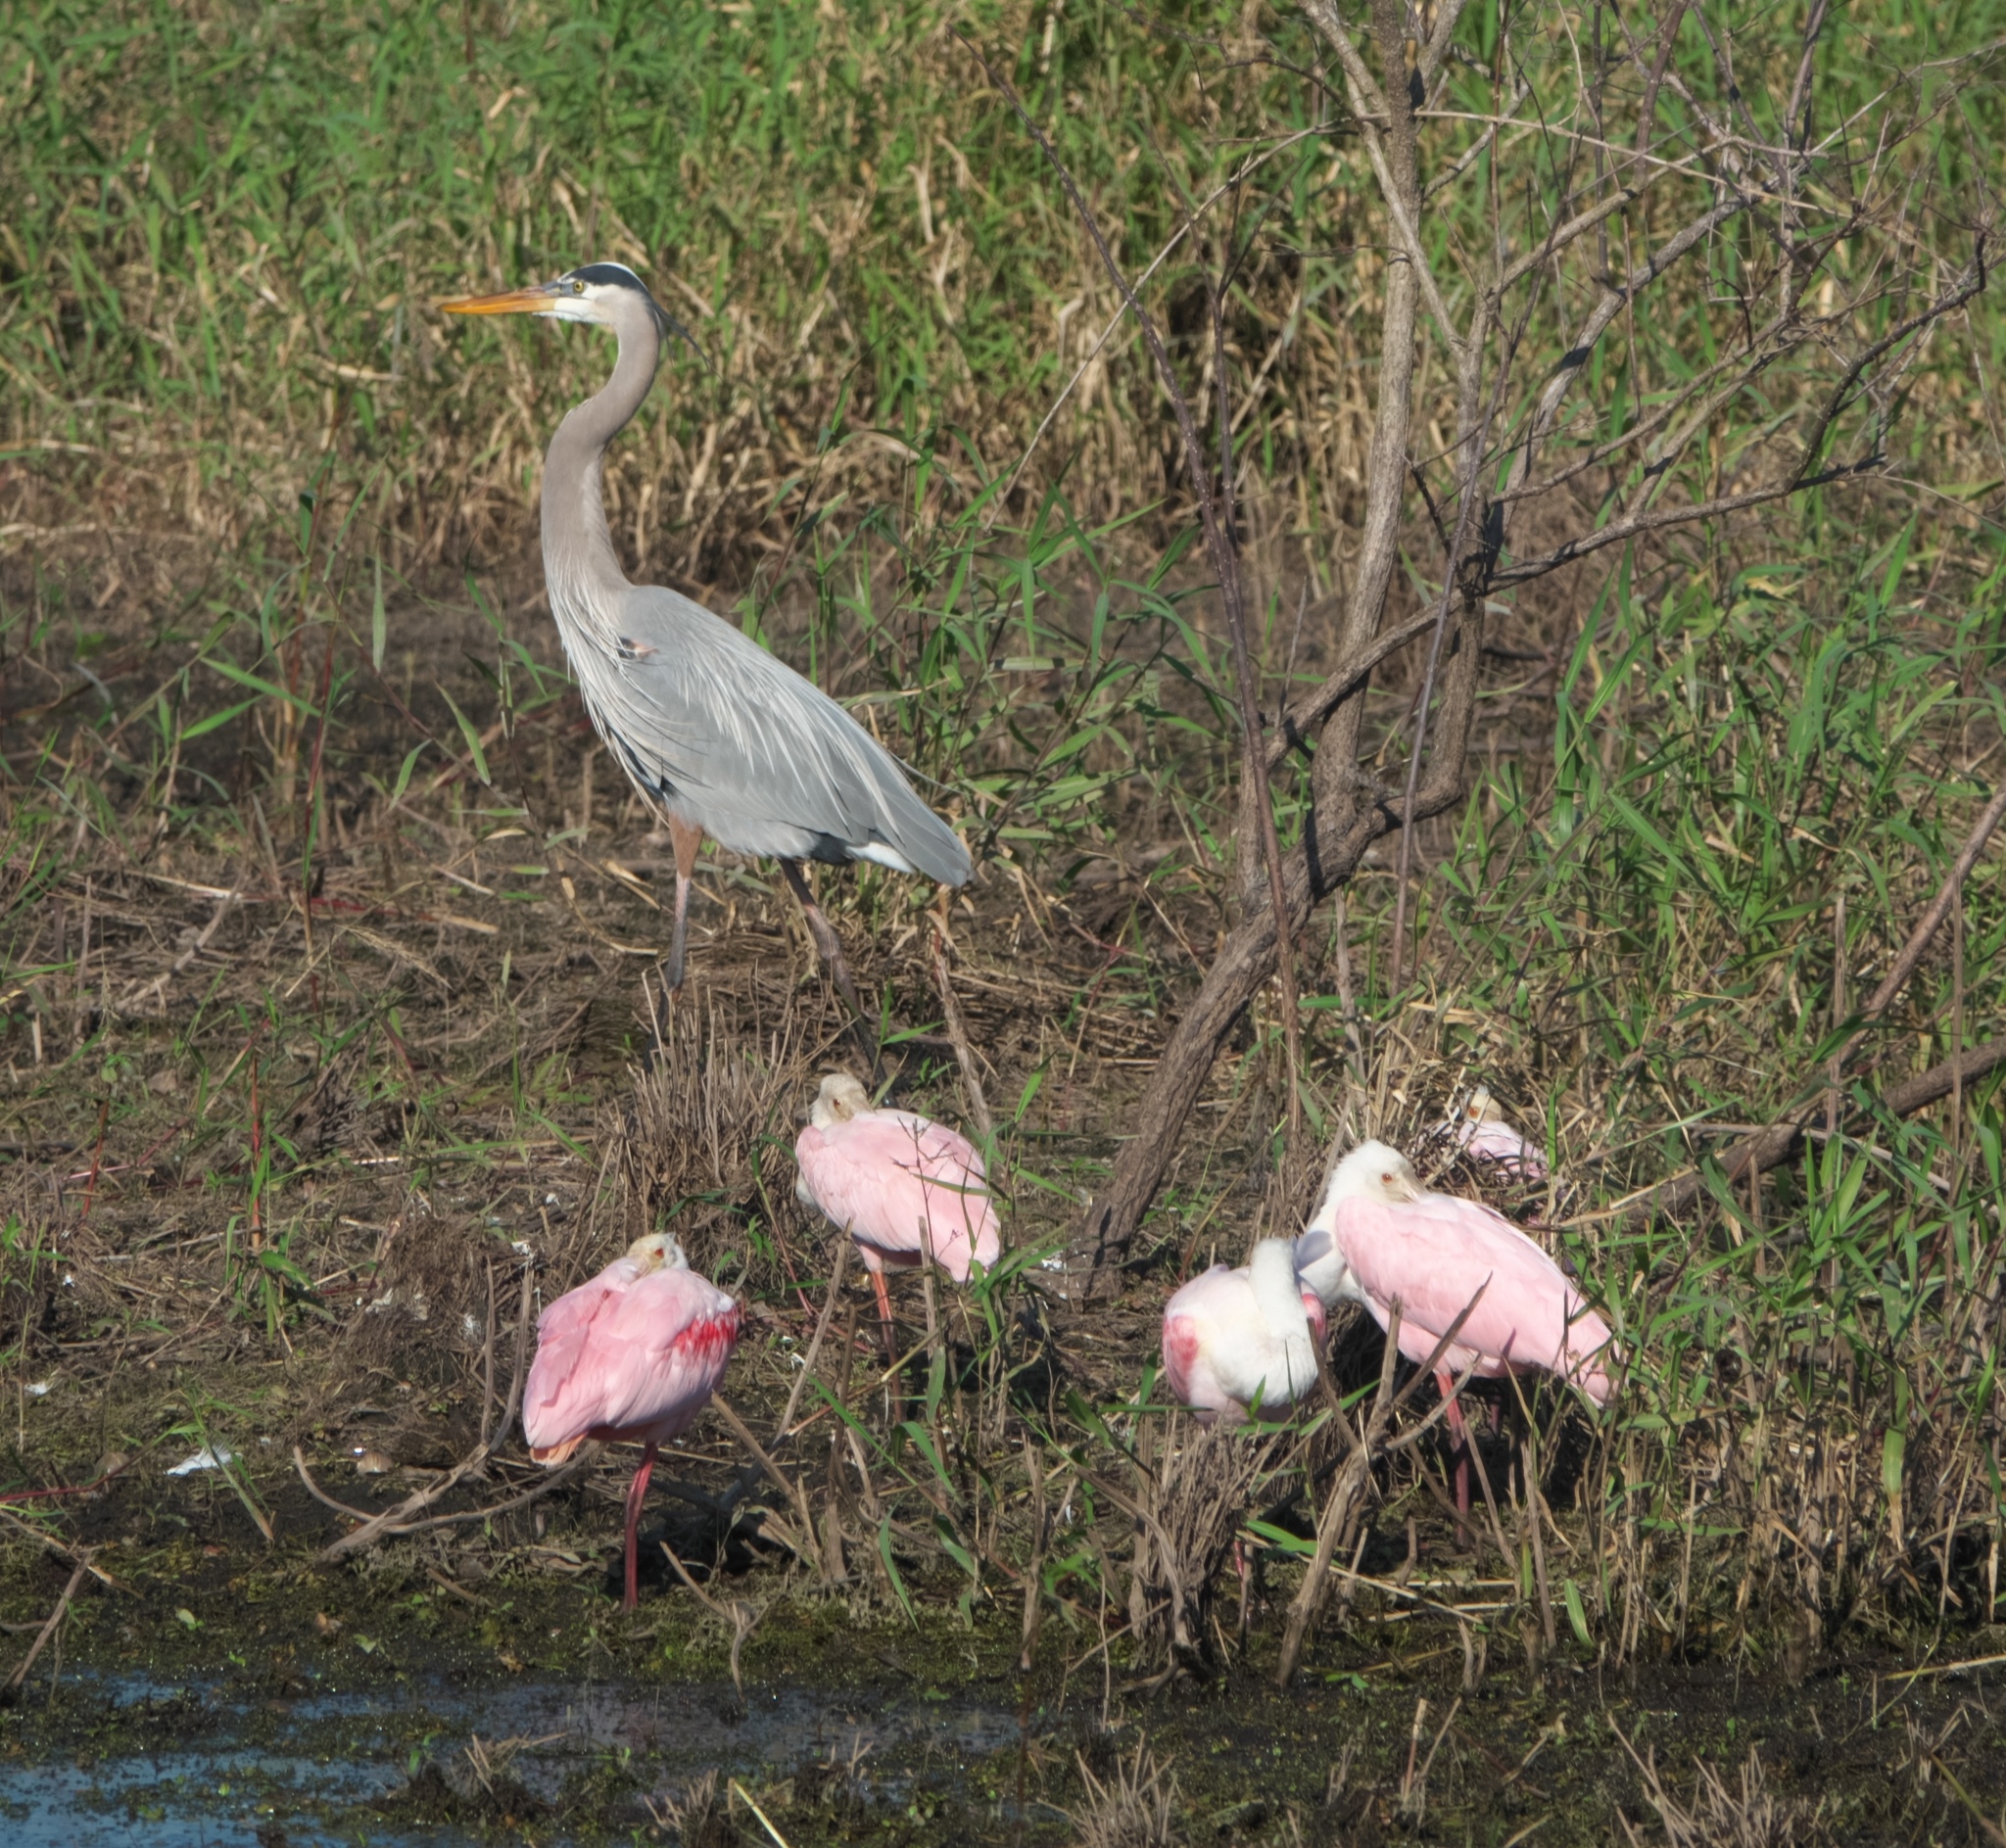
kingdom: Animalia
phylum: Chordata
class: Aves
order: Pelecaniformes
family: Ardeidae
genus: Ardea
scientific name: Ardea herodias
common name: Great blue heron
